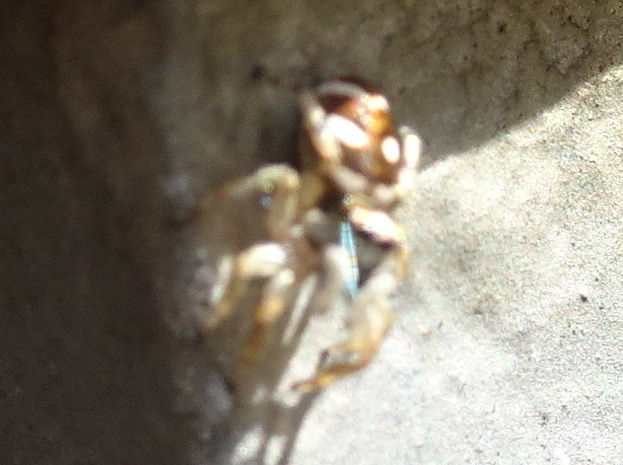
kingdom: Animalia
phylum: Arthropoda
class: Arachnida
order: Araneae
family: Salticidae
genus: Salticus
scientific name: Salticus scenicus
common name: Zebra jumper
